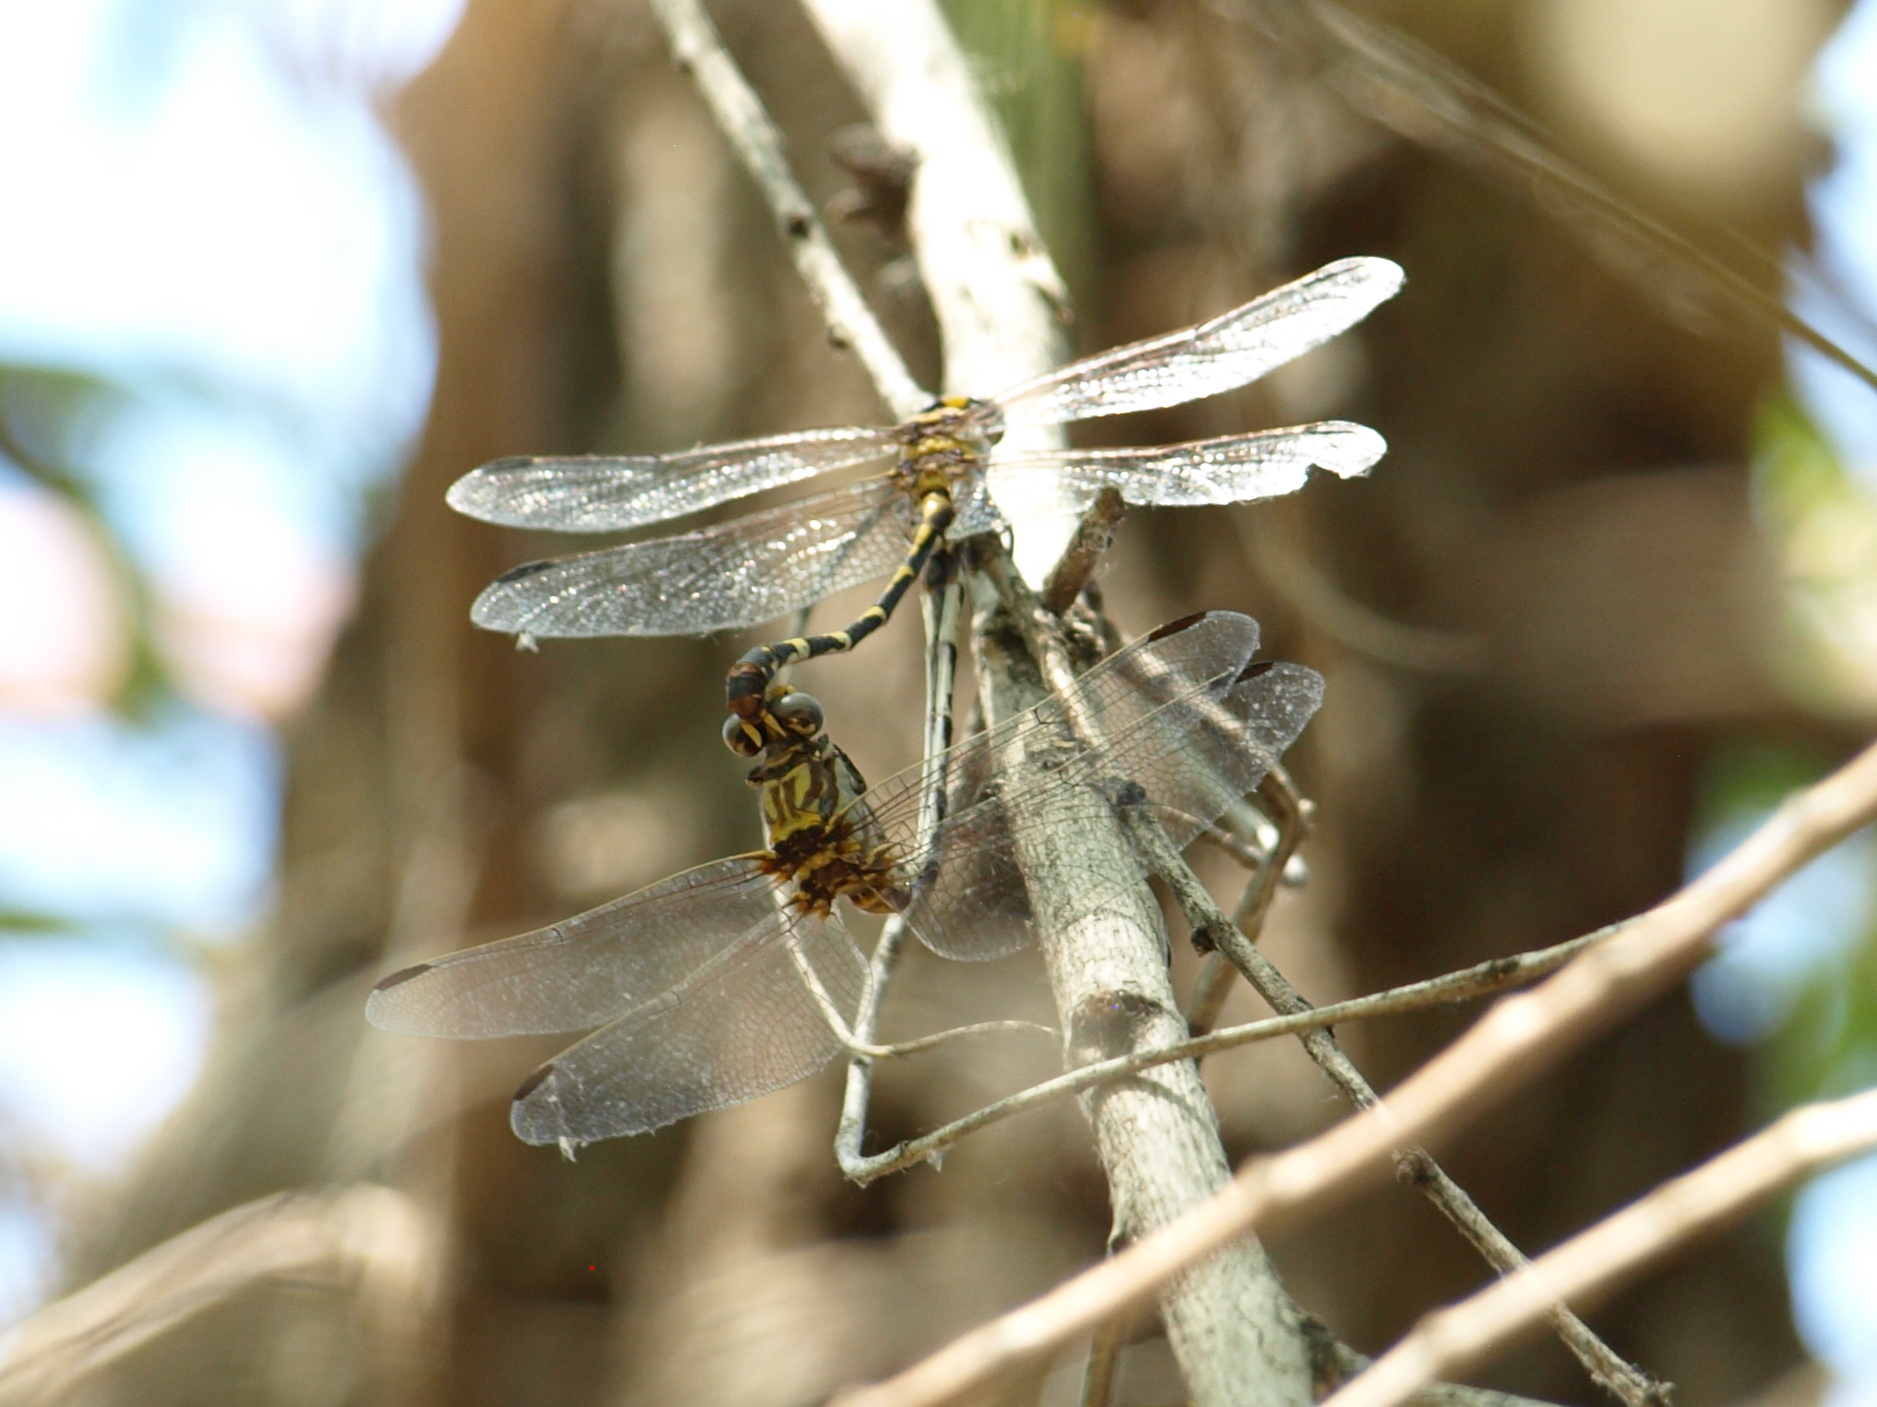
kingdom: Animalia
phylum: Arthropoda
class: Insecta
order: Odonata
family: Gomphidae
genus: Progomphus
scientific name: Progomphus borealis
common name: Gray sanddragon
